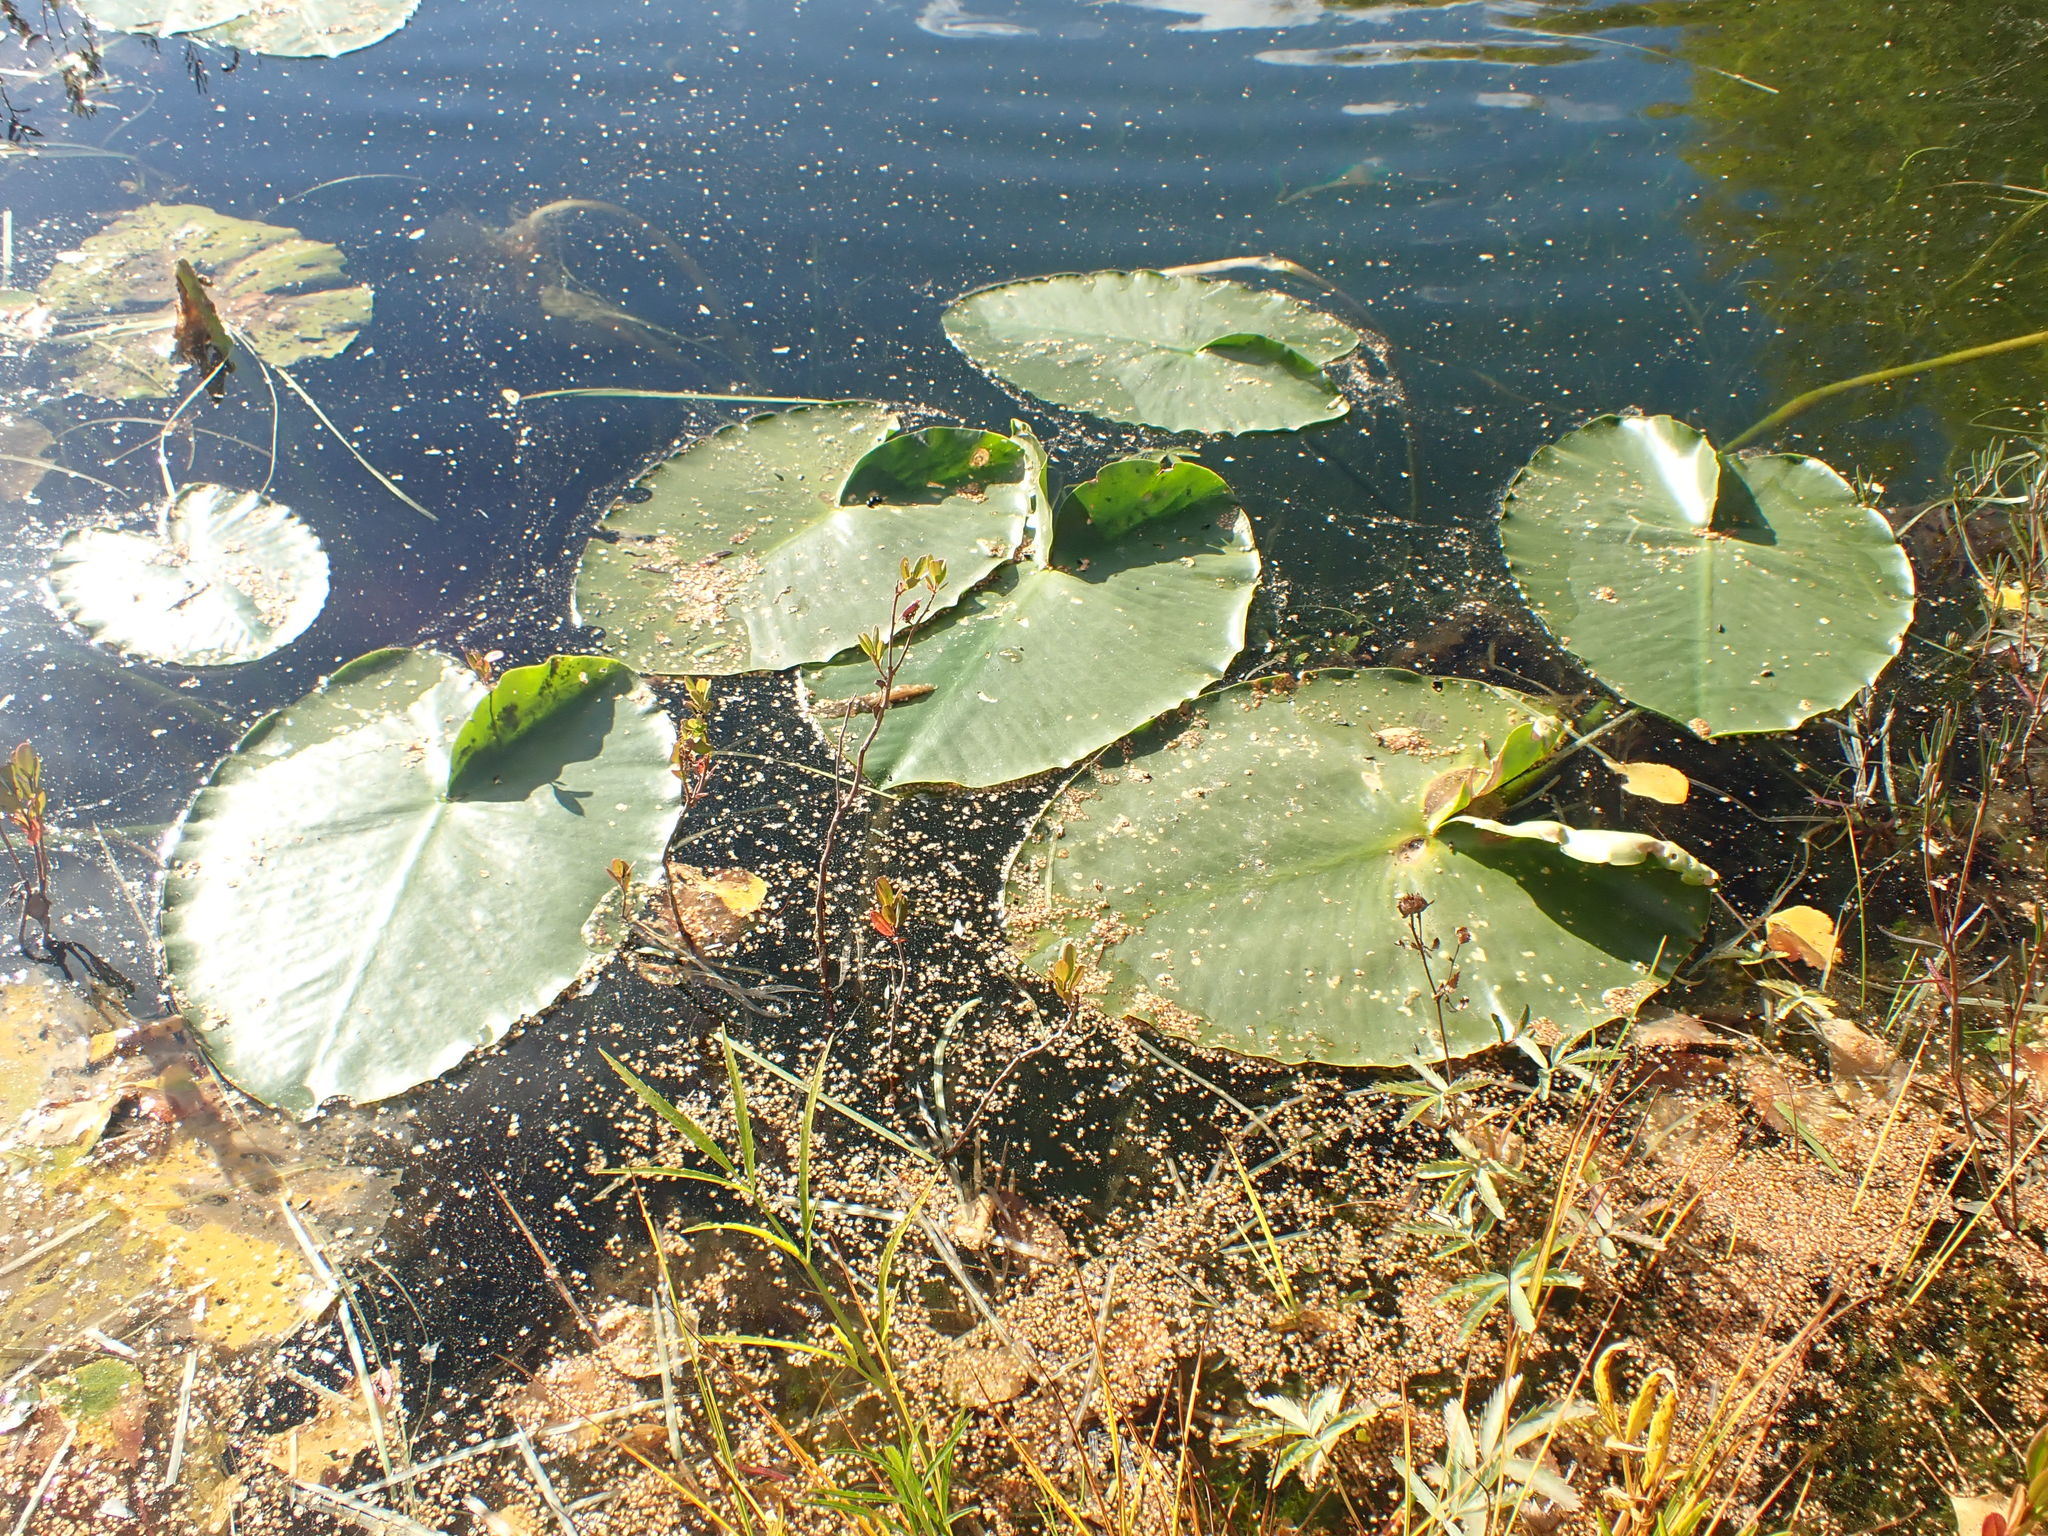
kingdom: Plantae
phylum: Tracheophyta
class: Magnoliopsida
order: Nymphaeales
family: Nymphaeaceae
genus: Nuphar
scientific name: Nuphar polysepala
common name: Rocky mountain cow-lily
